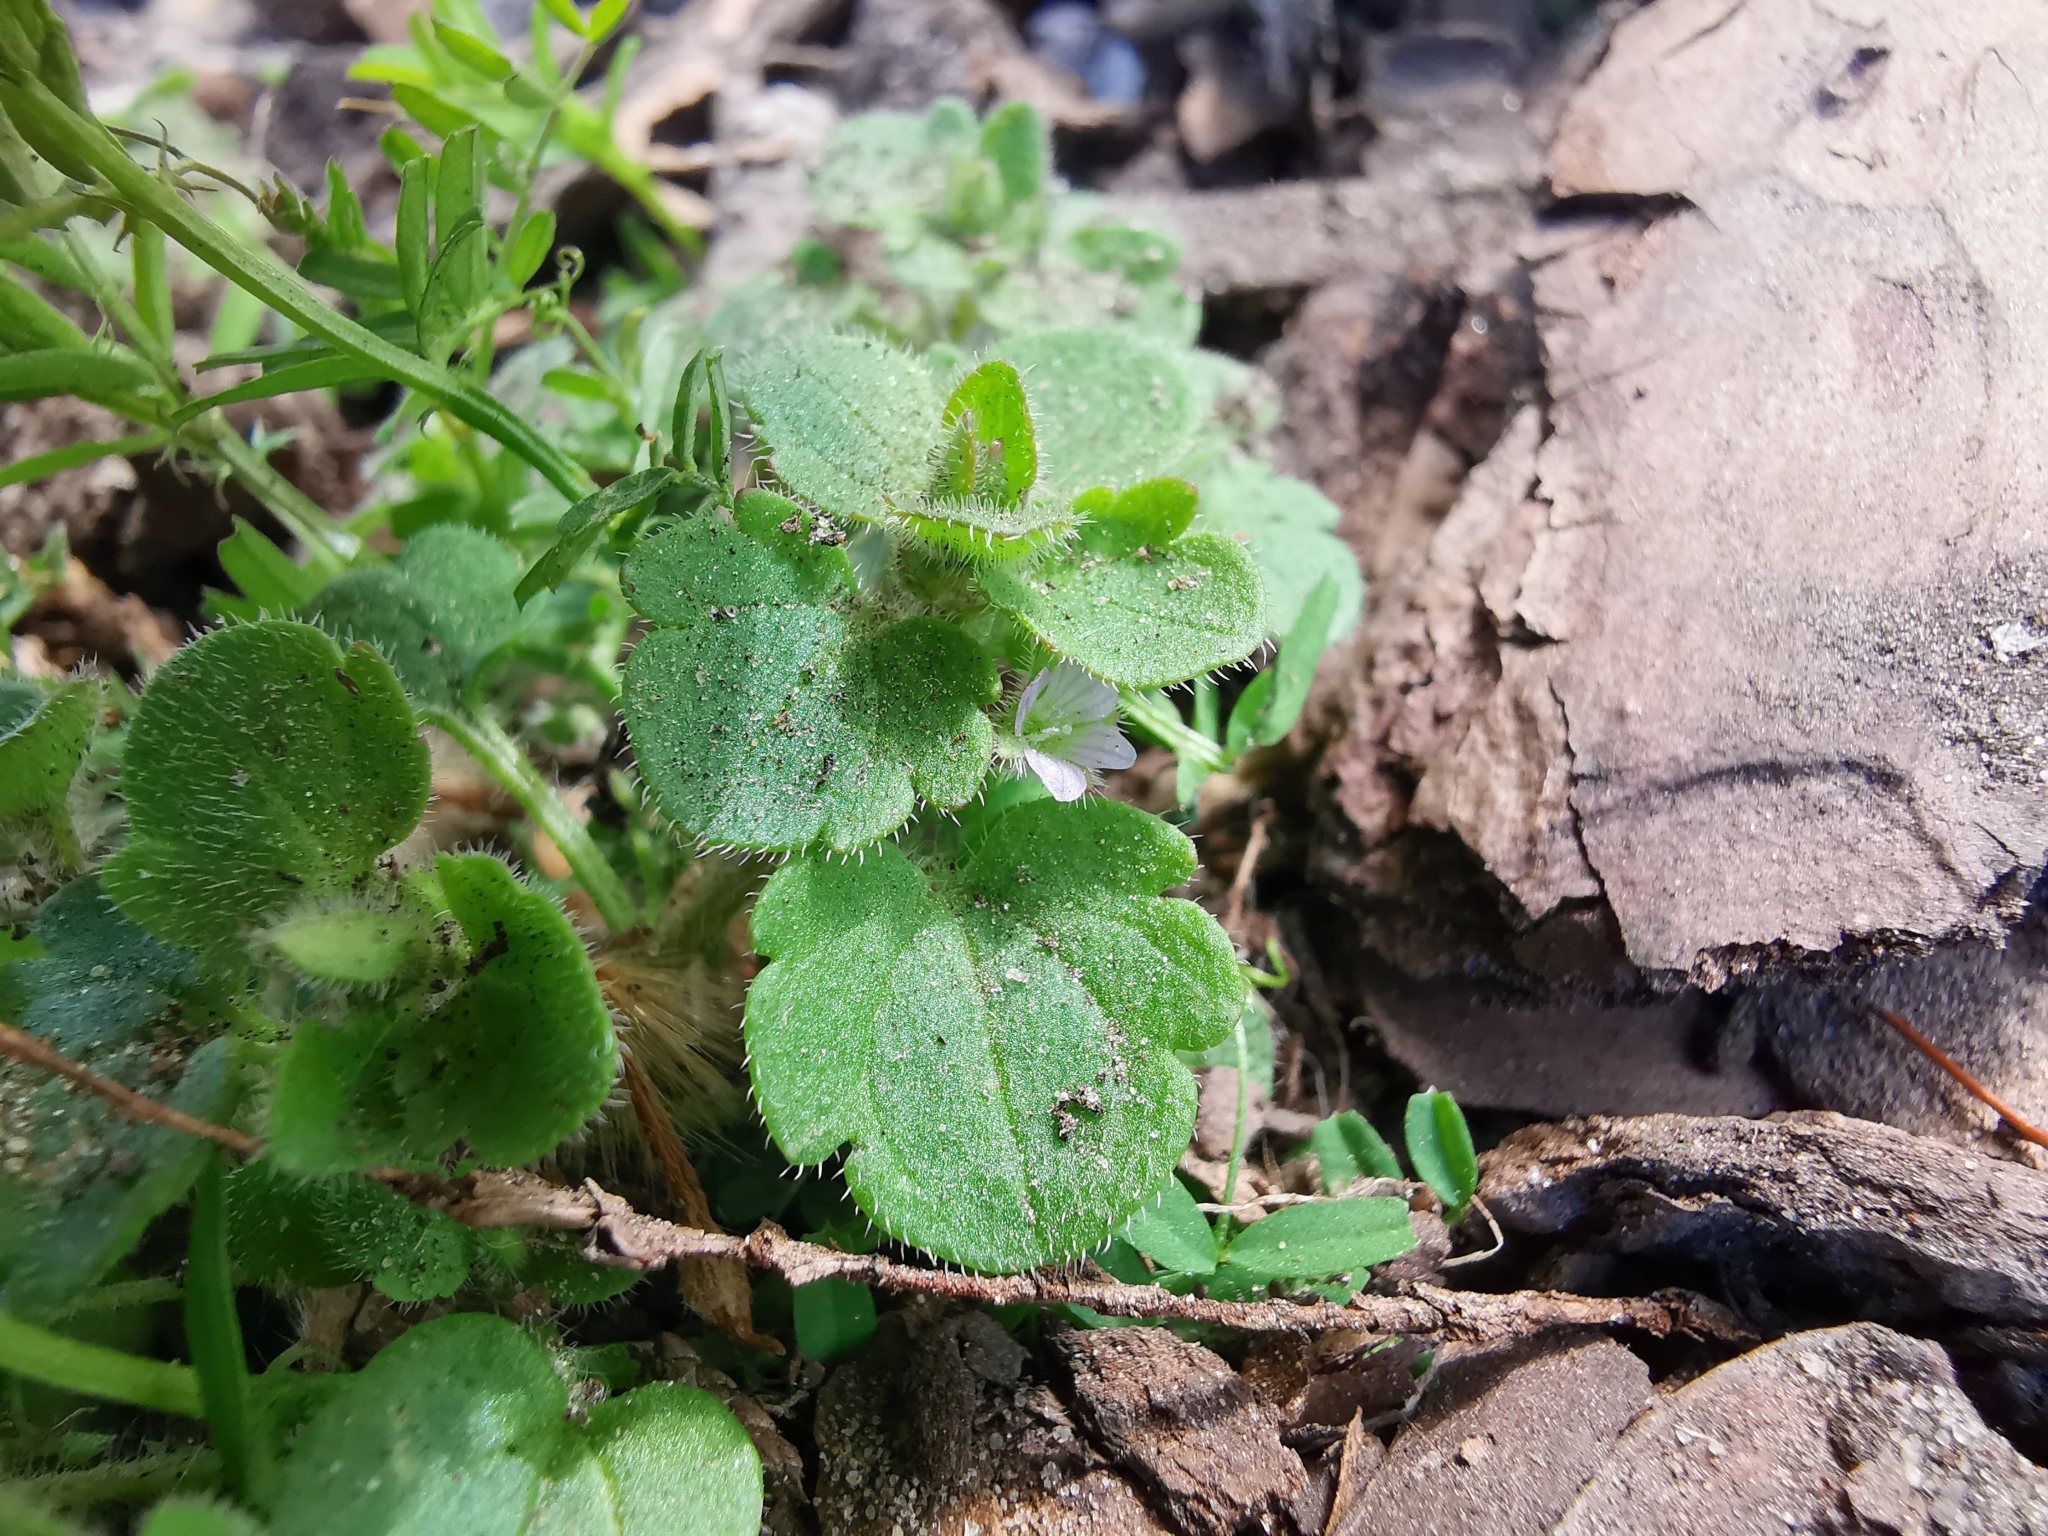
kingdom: Plantae
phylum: Tracheophyta
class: Magnoliopsida
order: Lamiales
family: Plantaginaceae
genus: Veronica
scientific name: Veronica sublobata
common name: False ivy-leaved speedwell
